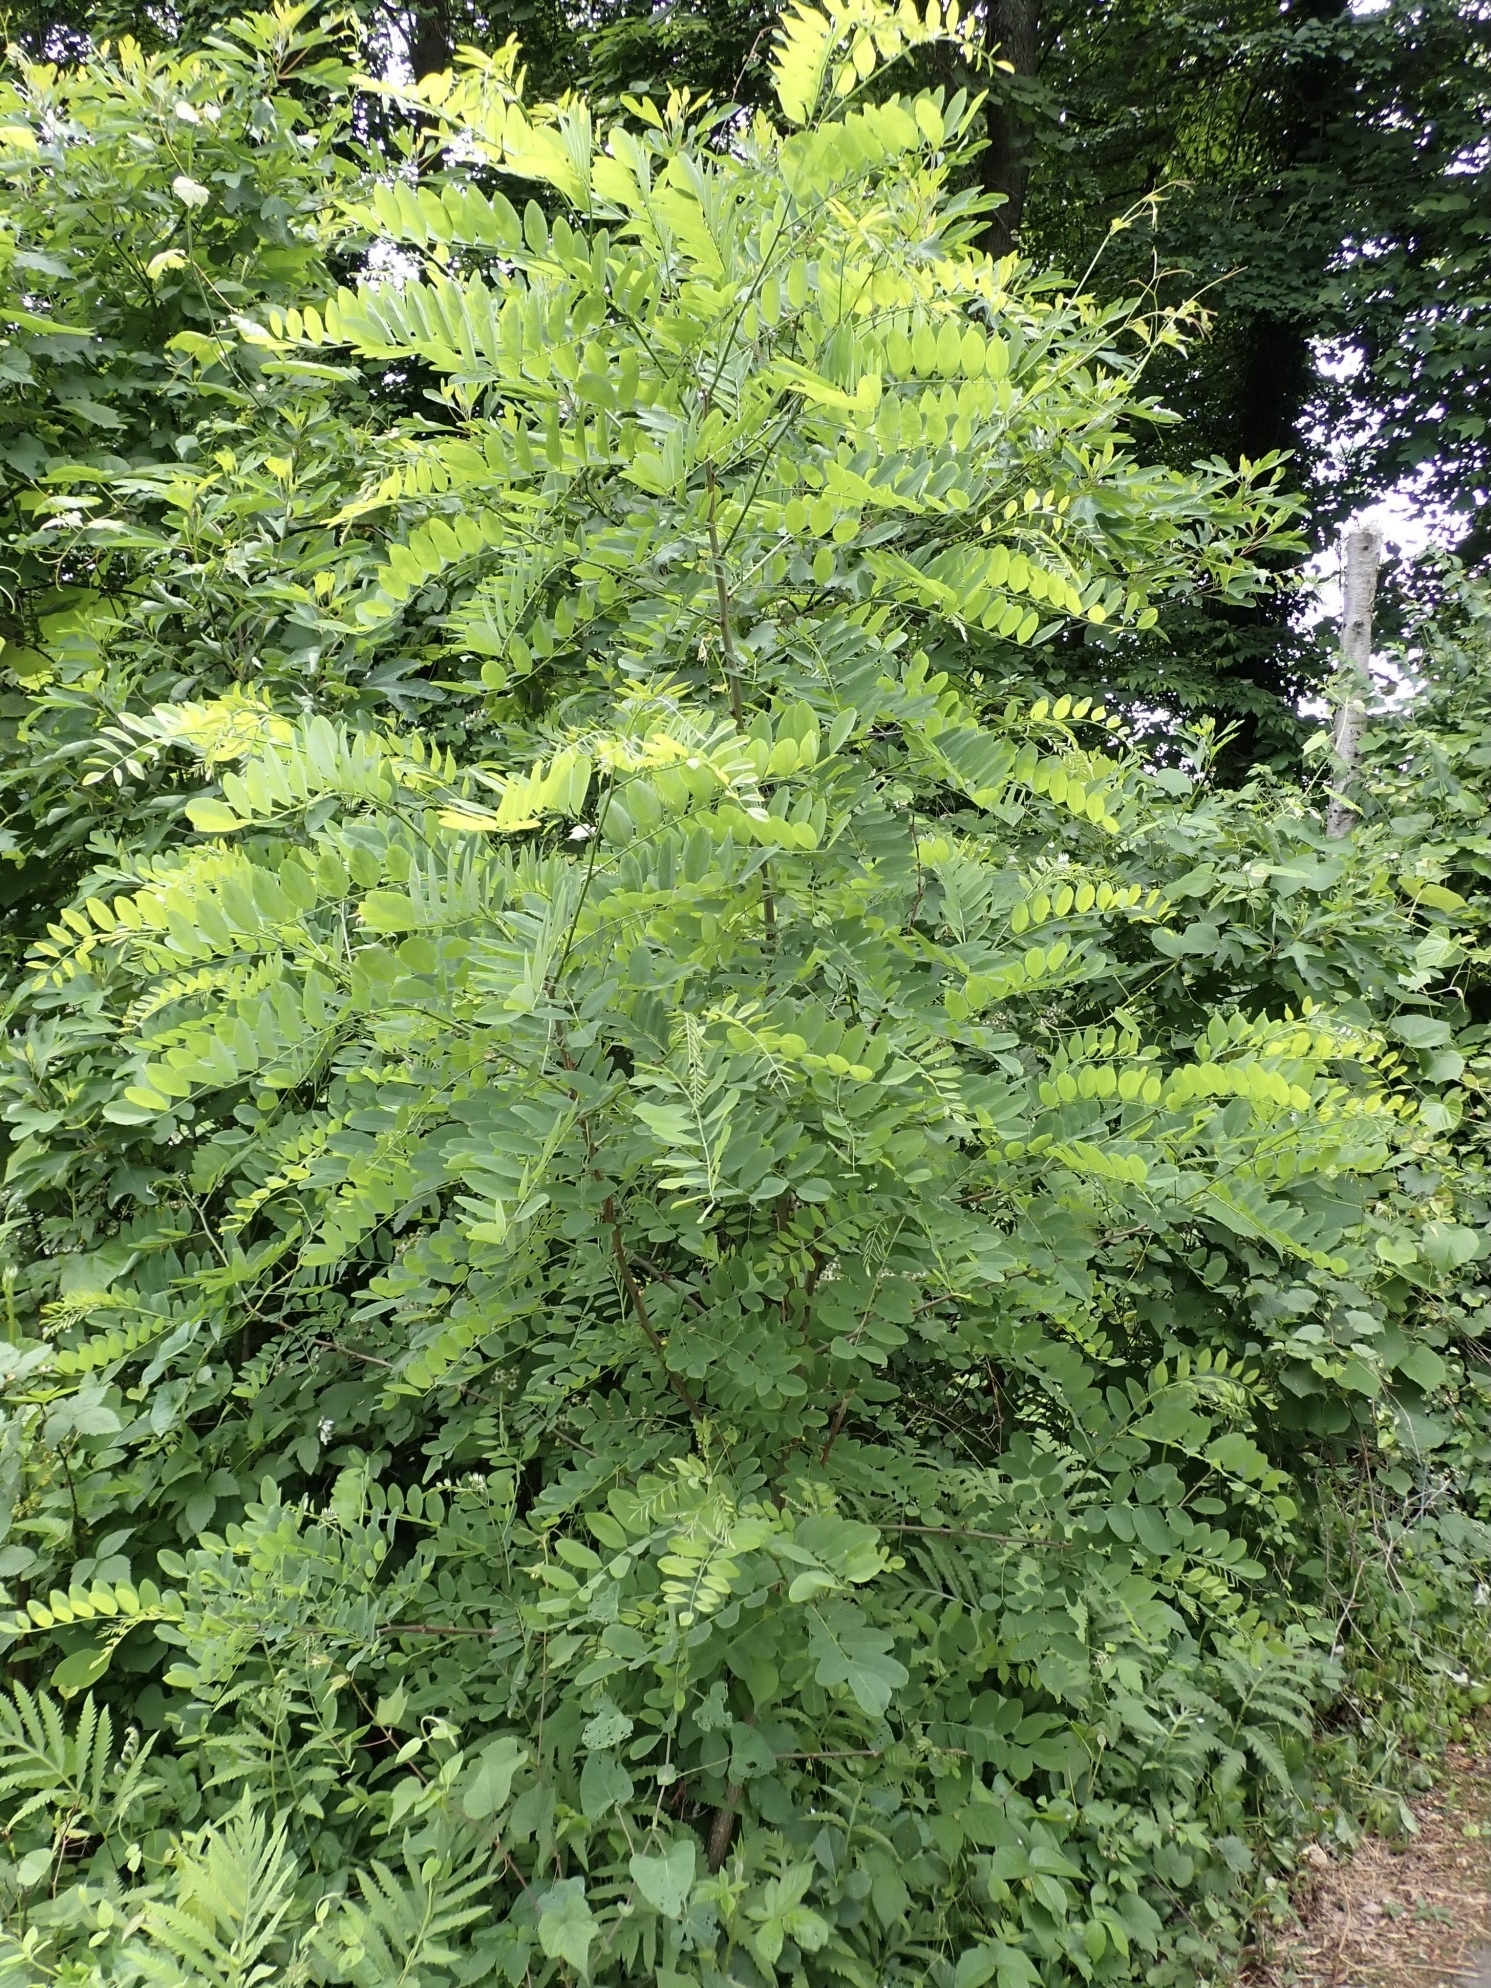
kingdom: Plantae
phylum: Tracheophyta
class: Magnoliopsida
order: Fabales
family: Fabaceae
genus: Robinia
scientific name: Robinia pseudoacacia
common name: Black locust
